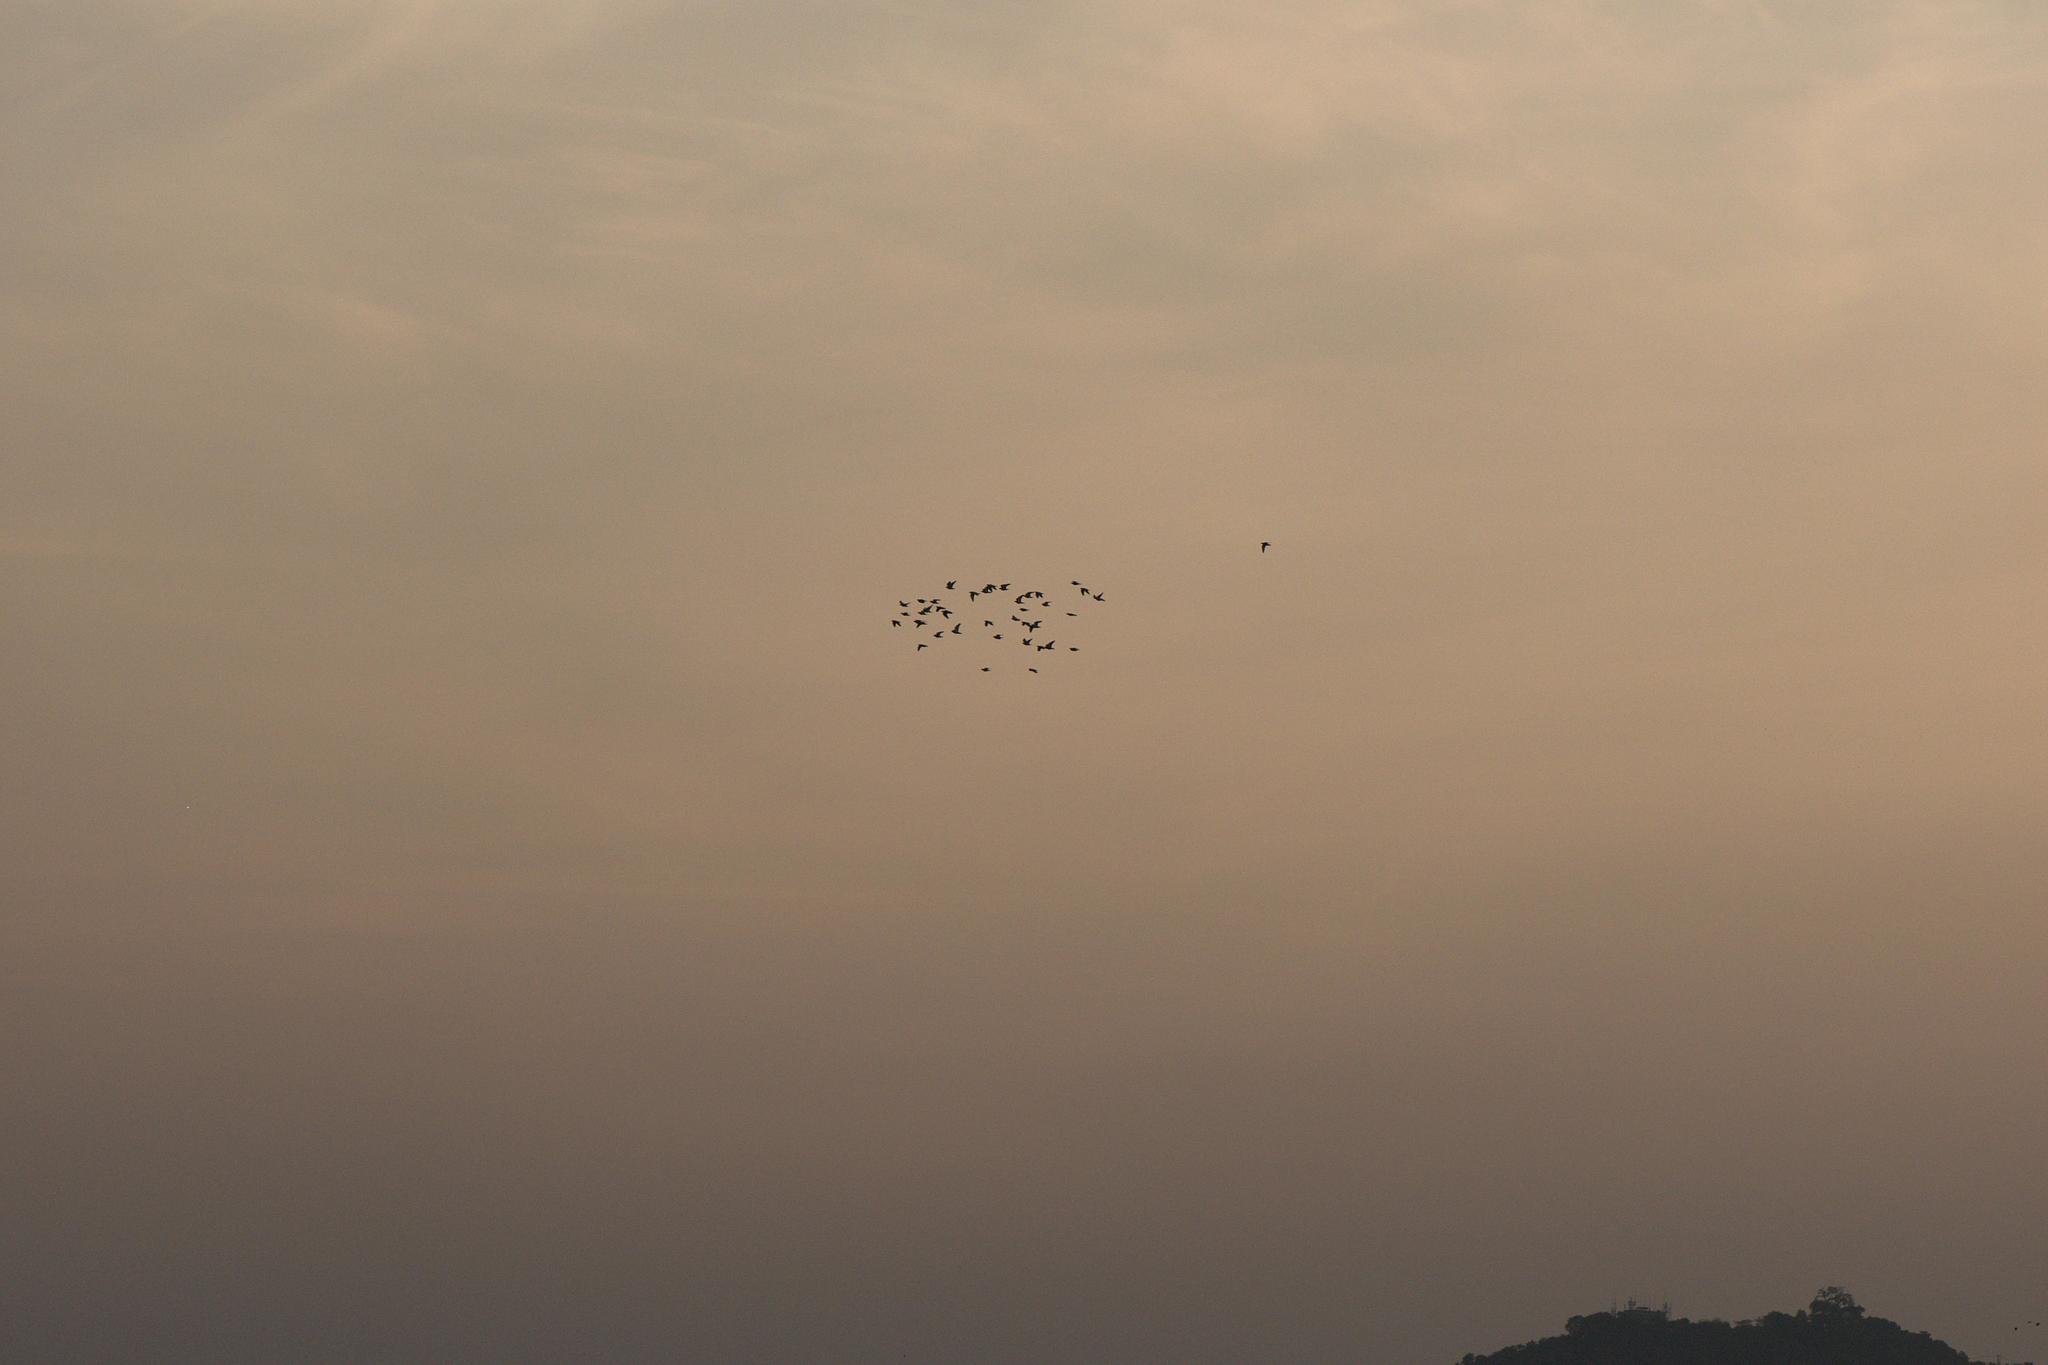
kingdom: Animalia
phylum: Chordata
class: Aves
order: Columbiformes
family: Columbidae
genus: Columba
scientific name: Columba livia
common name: Rock pigeon
